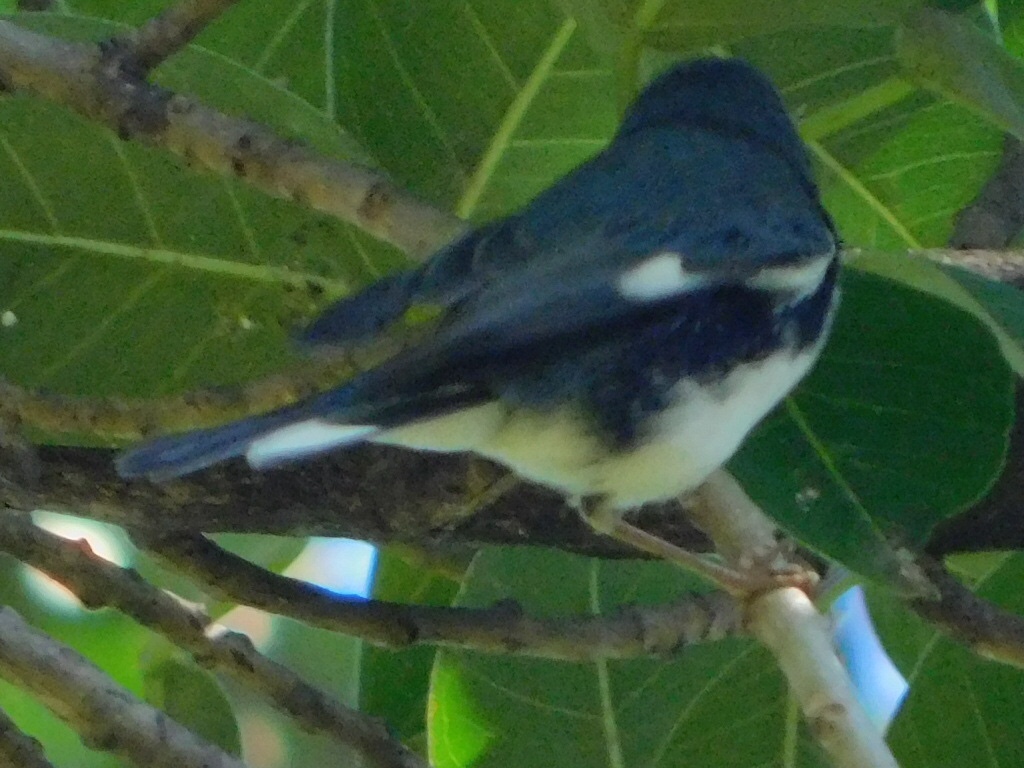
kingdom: Animalia
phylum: Chordata
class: Aves
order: Passeriformes
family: Parulidae
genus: Setophaga
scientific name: Setophaga caerulescens
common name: Black-throated blue warbler
